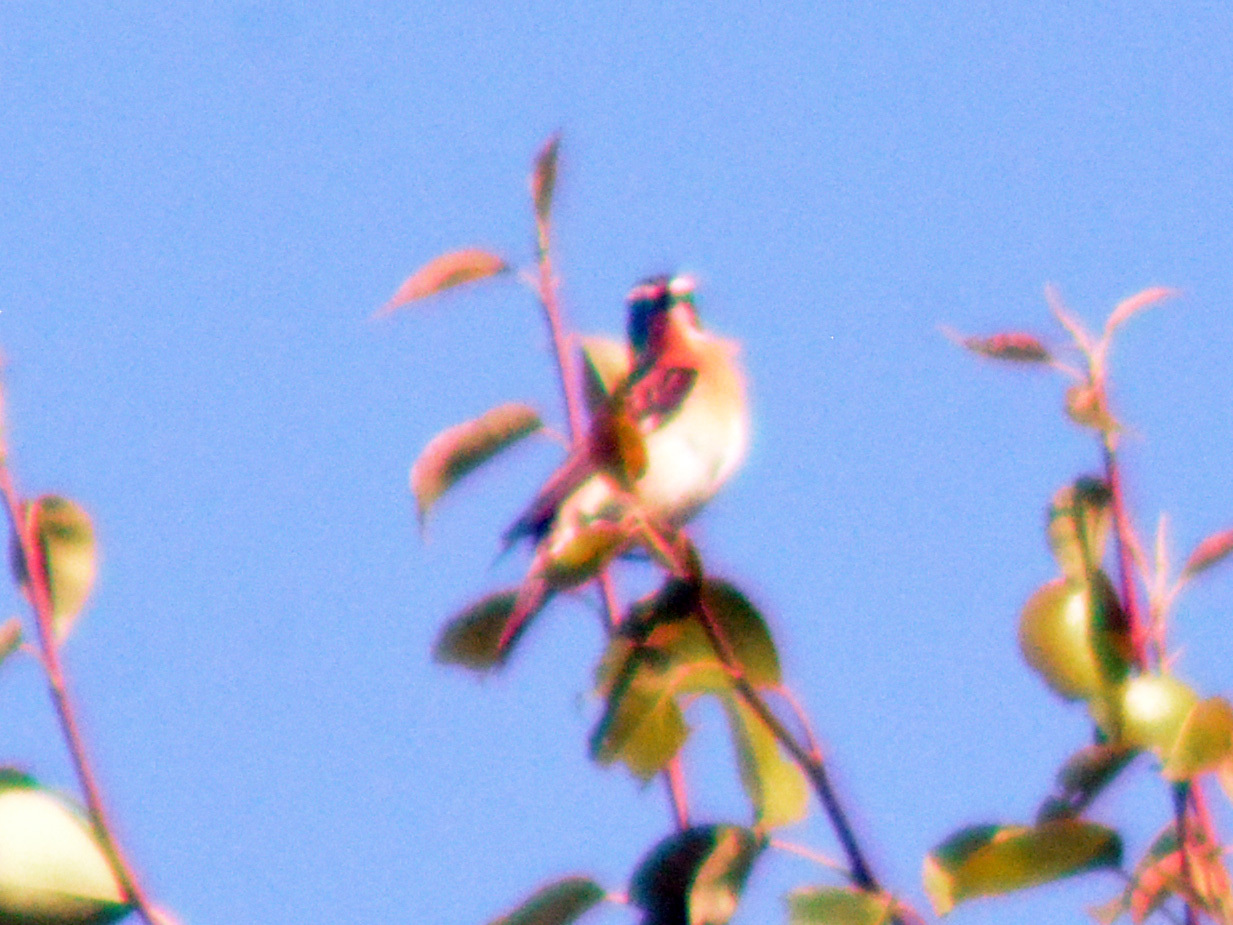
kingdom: Animalia
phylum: Chordata
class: Aves
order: Passeriformes
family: Muscicapidae
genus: Saxicola
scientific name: Saxicola rubetra
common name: Whinchat
